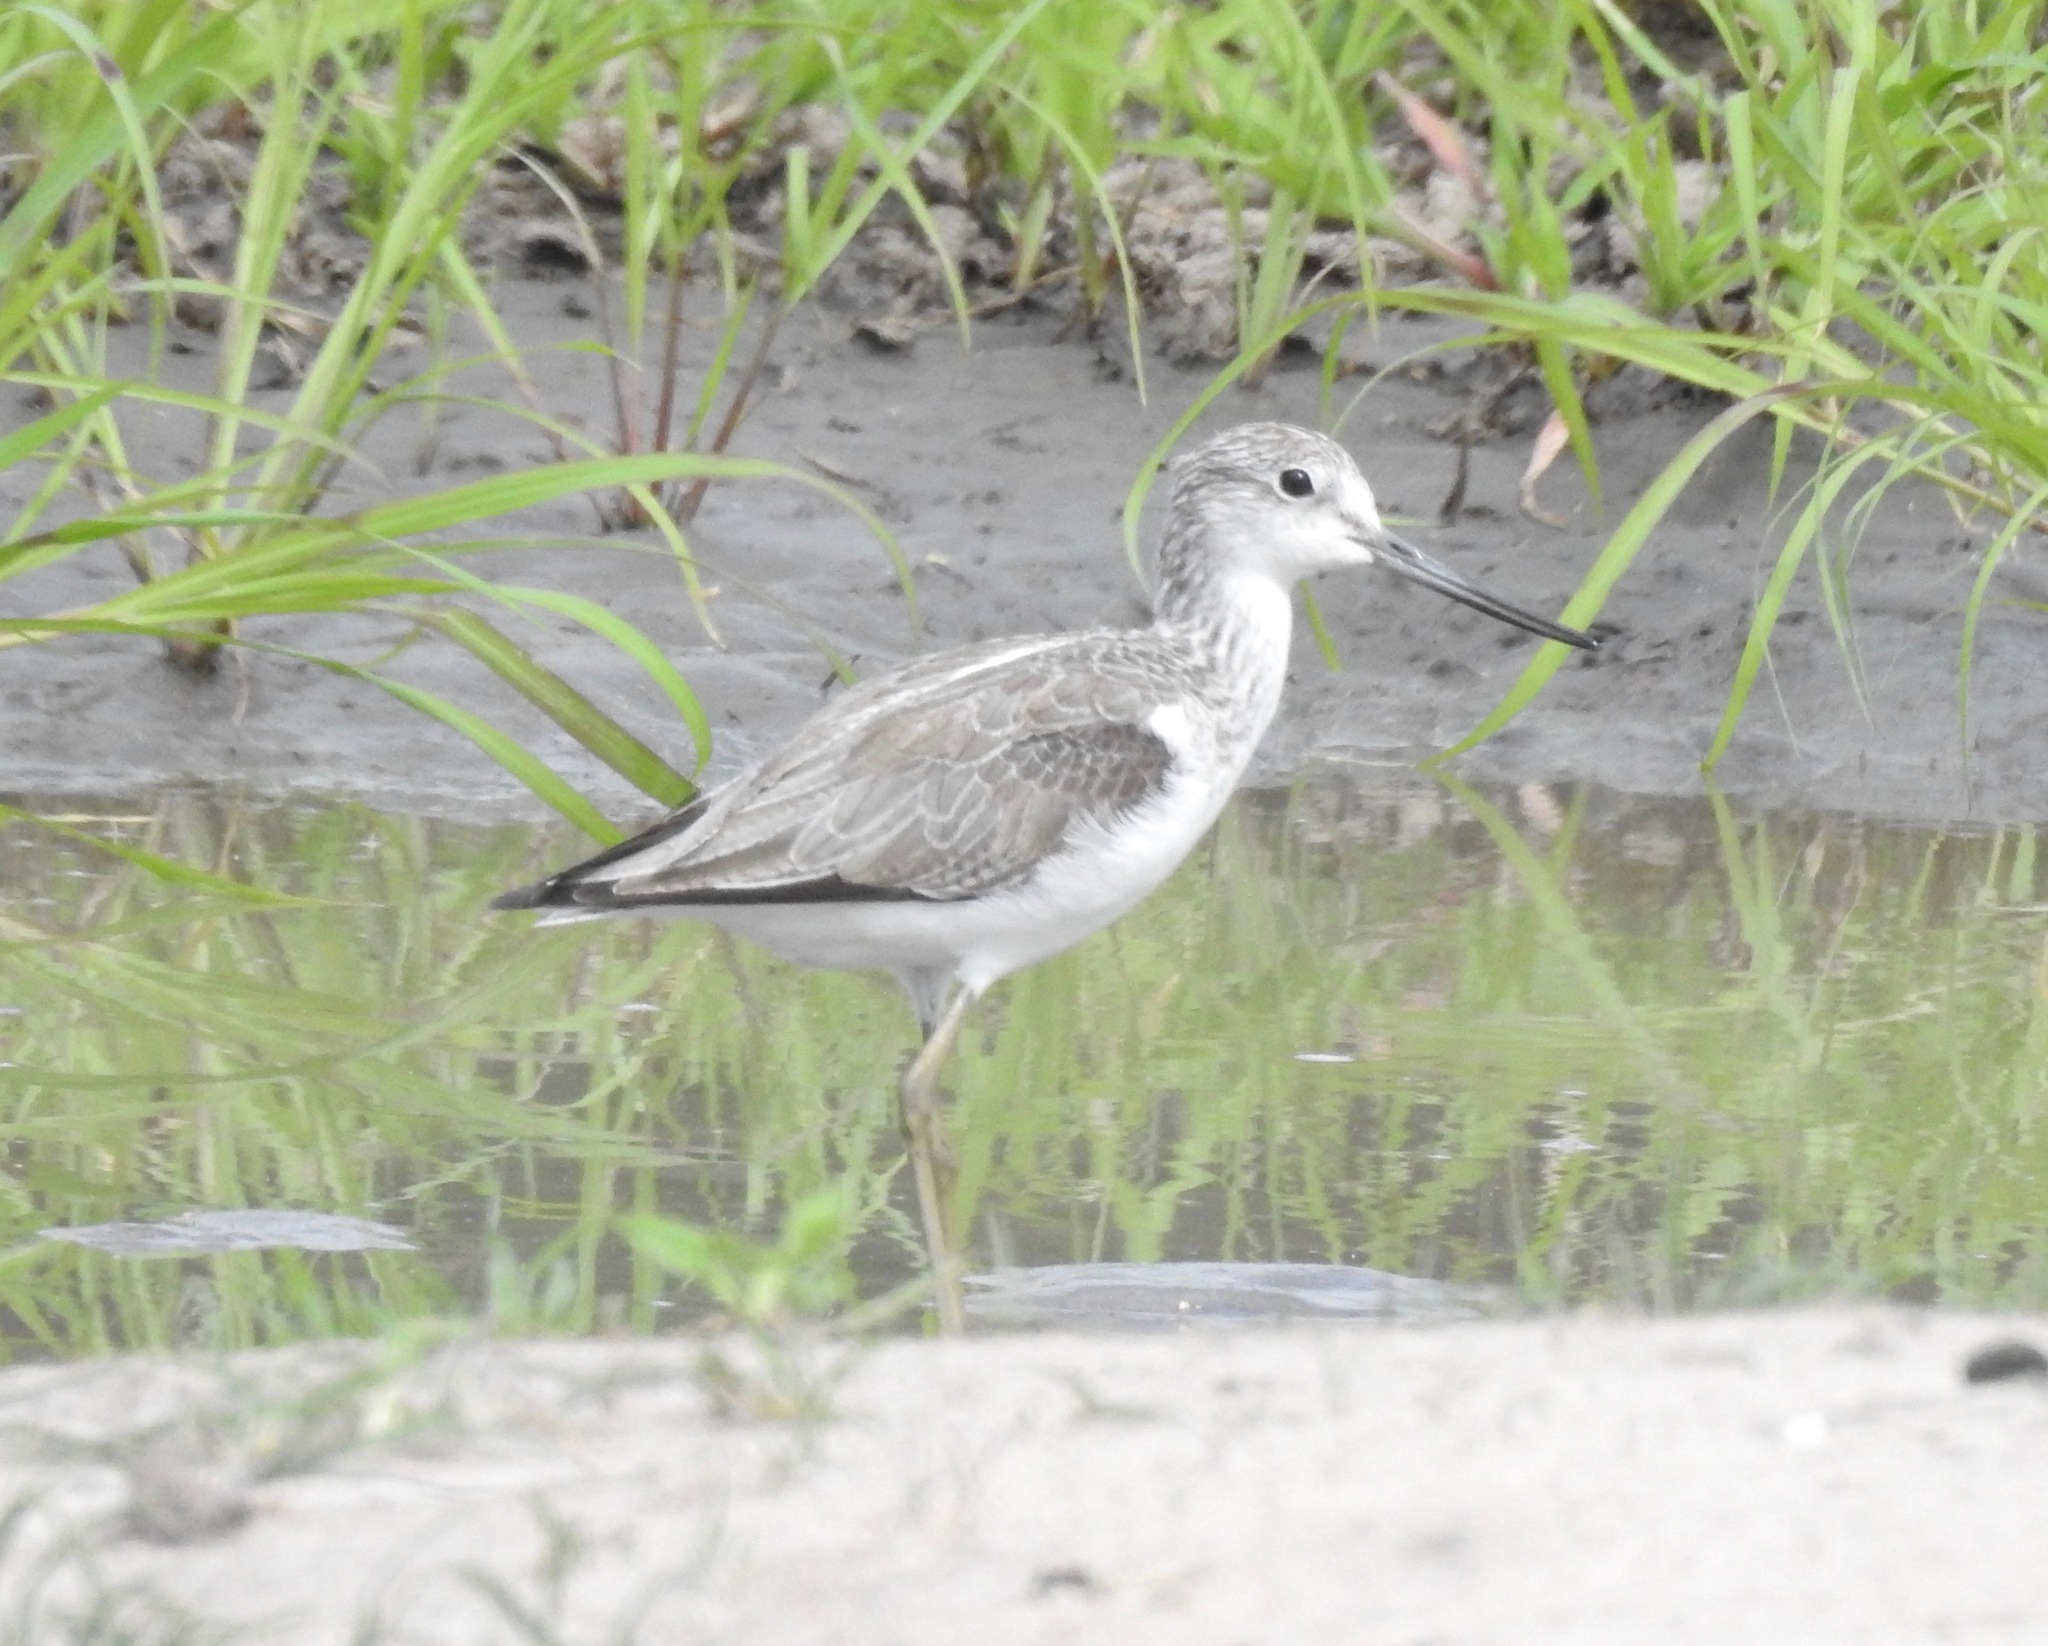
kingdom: Animalia
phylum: Chordata
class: Aves
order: Charadriiformes
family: Scolopacidae
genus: Tringa
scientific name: Tringa nebularia
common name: Common greenshank
